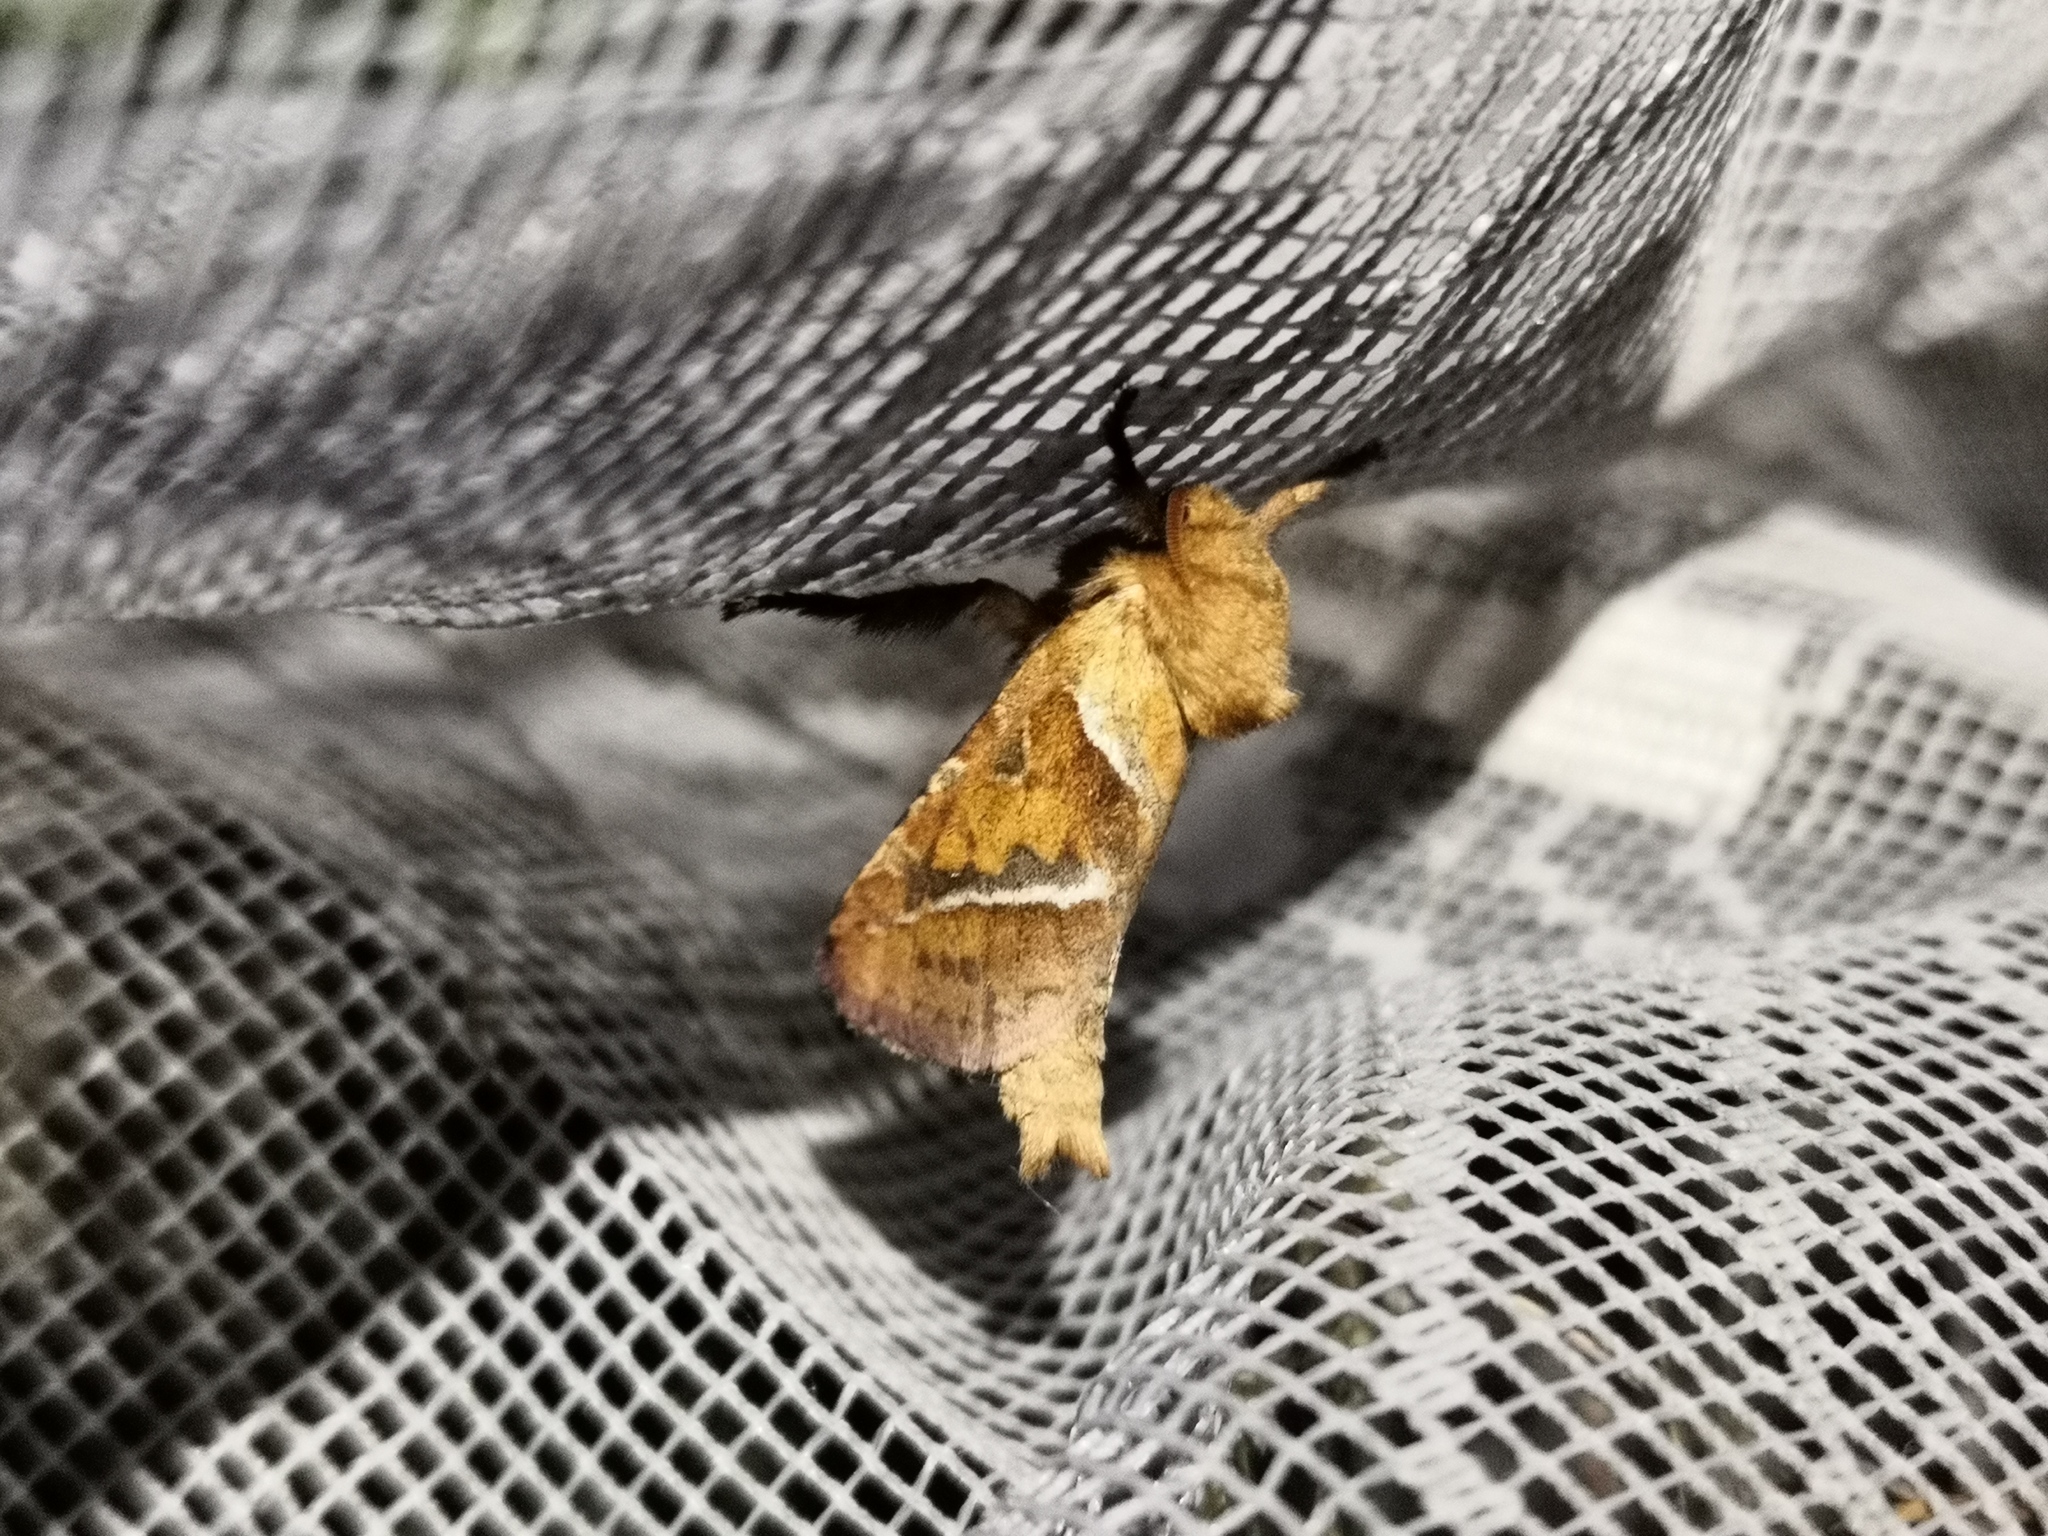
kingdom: Animalia
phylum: Arthropoda
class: Insecta
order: Lepidoptera
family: Hepialidae
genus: Triodia
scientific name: Triodia sylvina
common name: Orange swift
